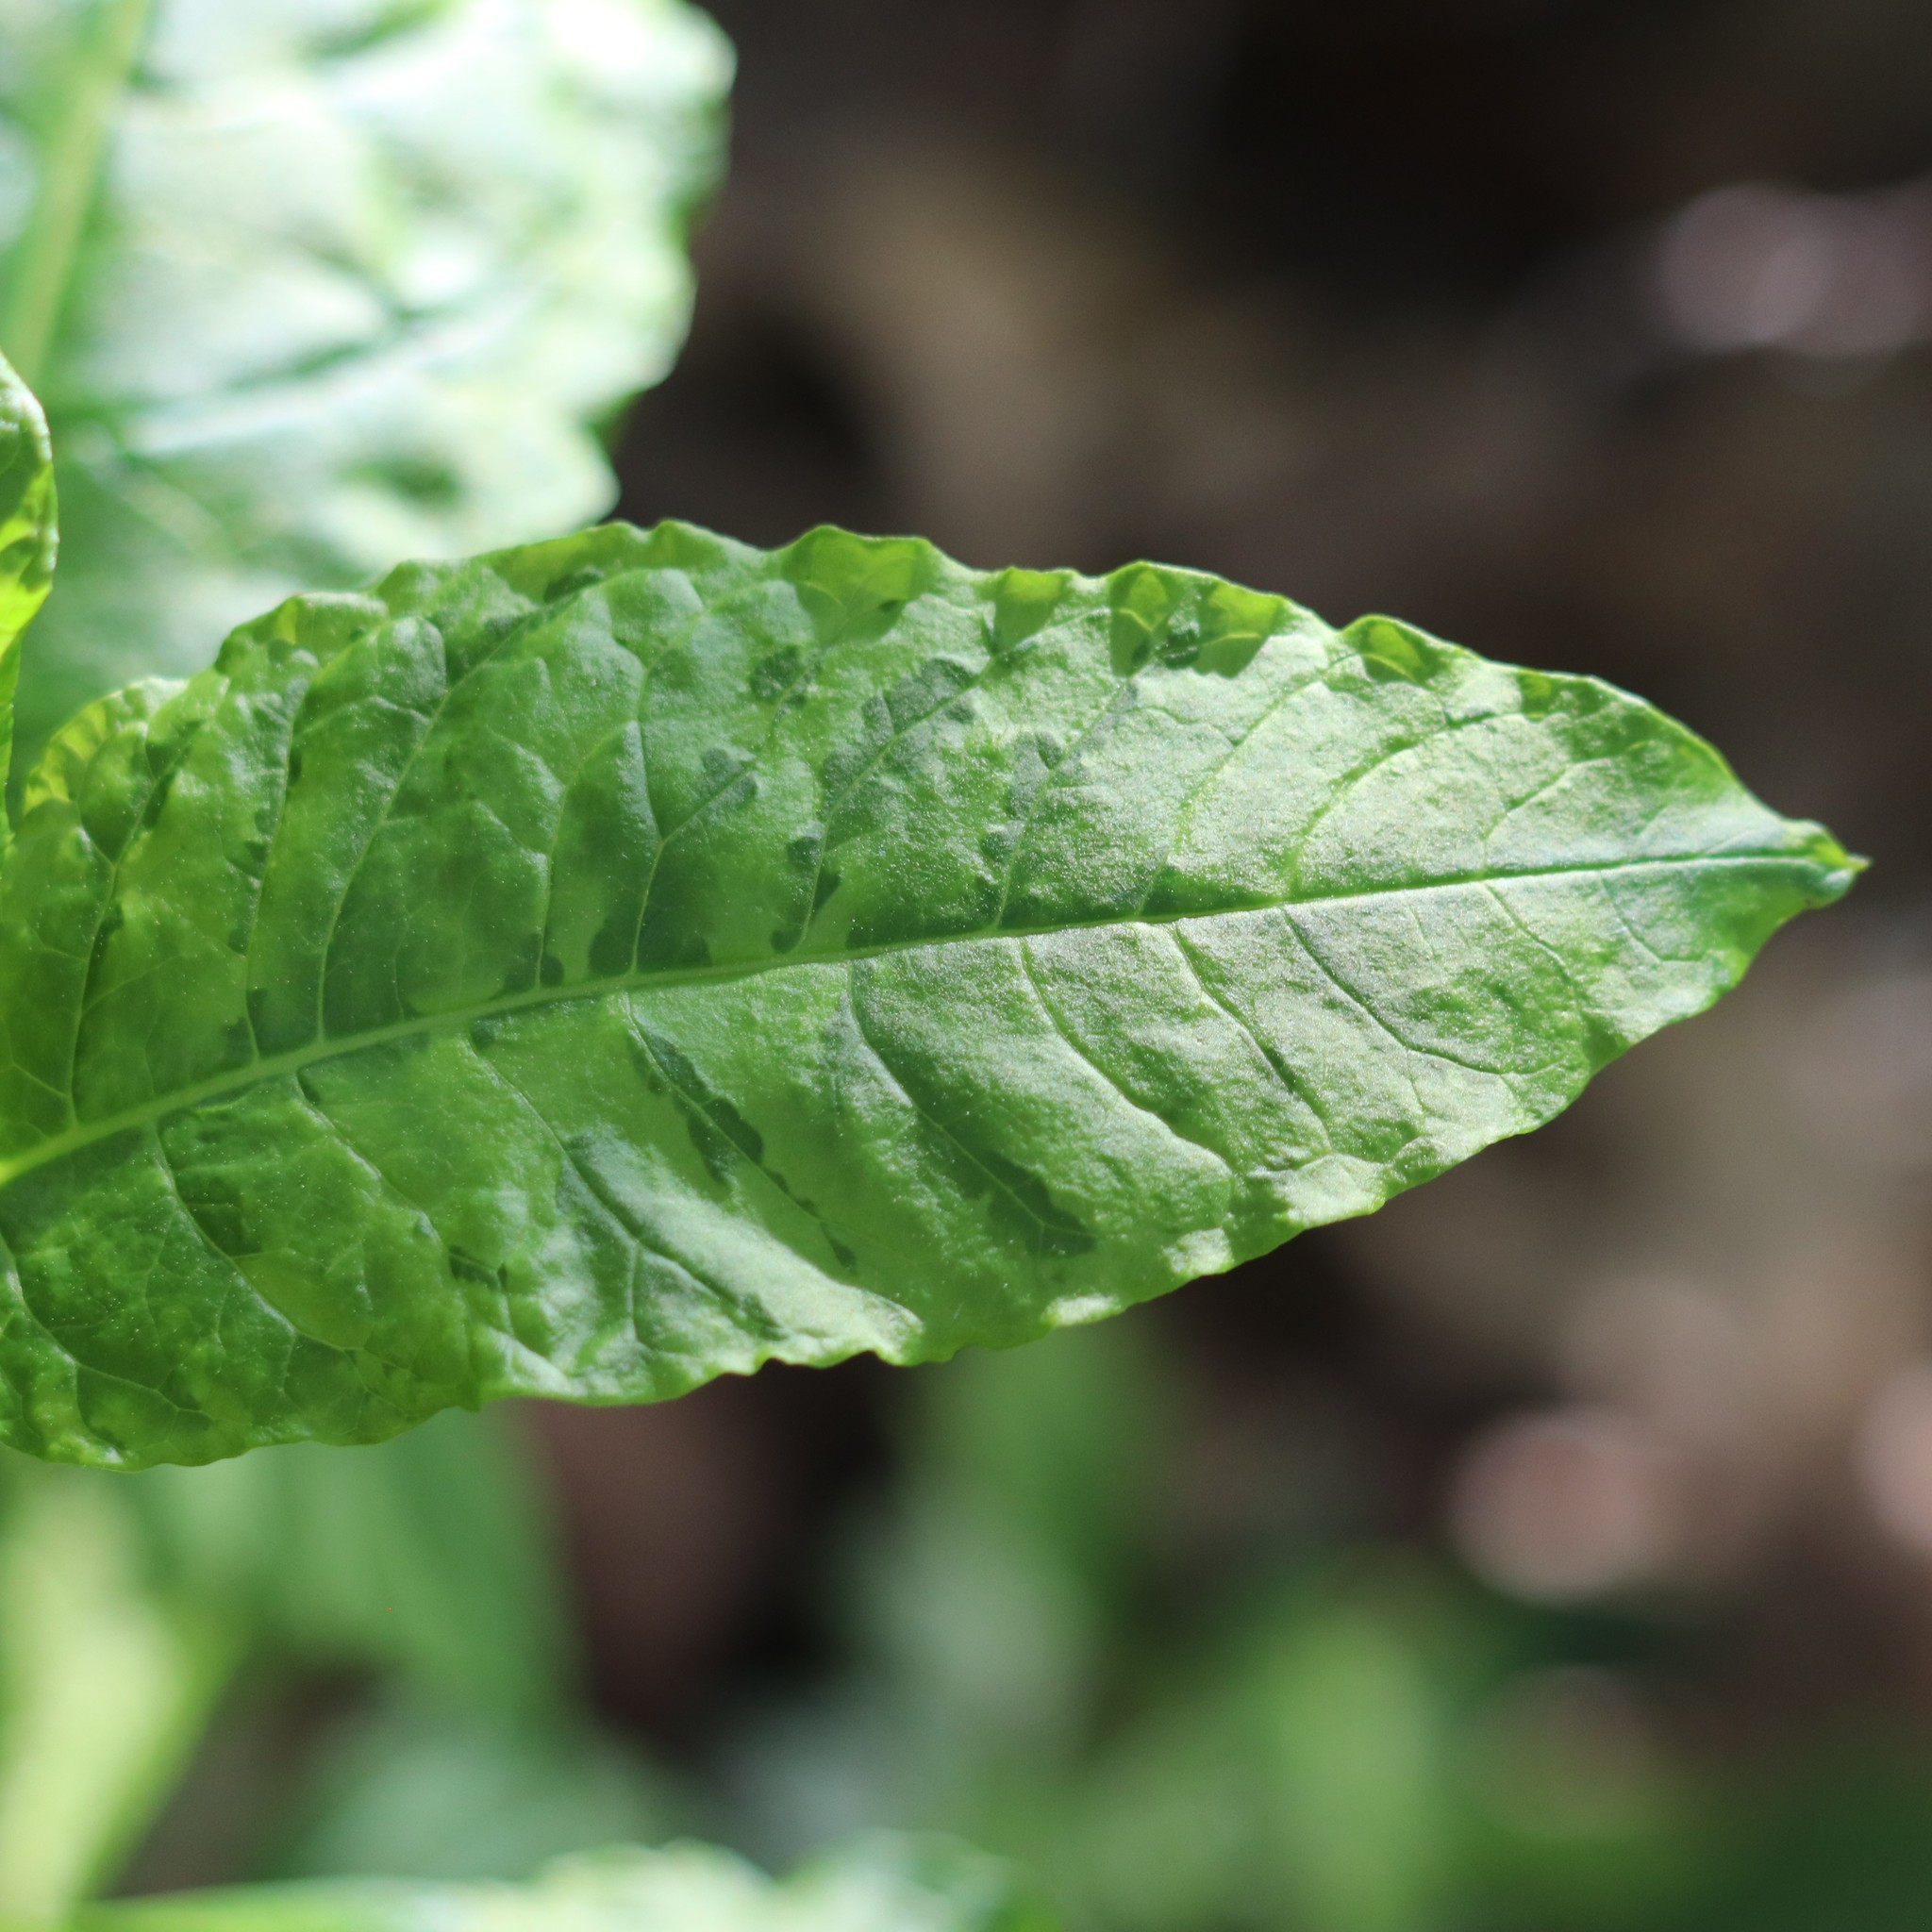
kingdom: Viruses
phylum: Pisuviricota
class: Stelpaviricetes
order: Patatavirales
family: Potyviridae
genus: Potyvirus
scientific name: Potyvirus Pokeweed mosaic virus
